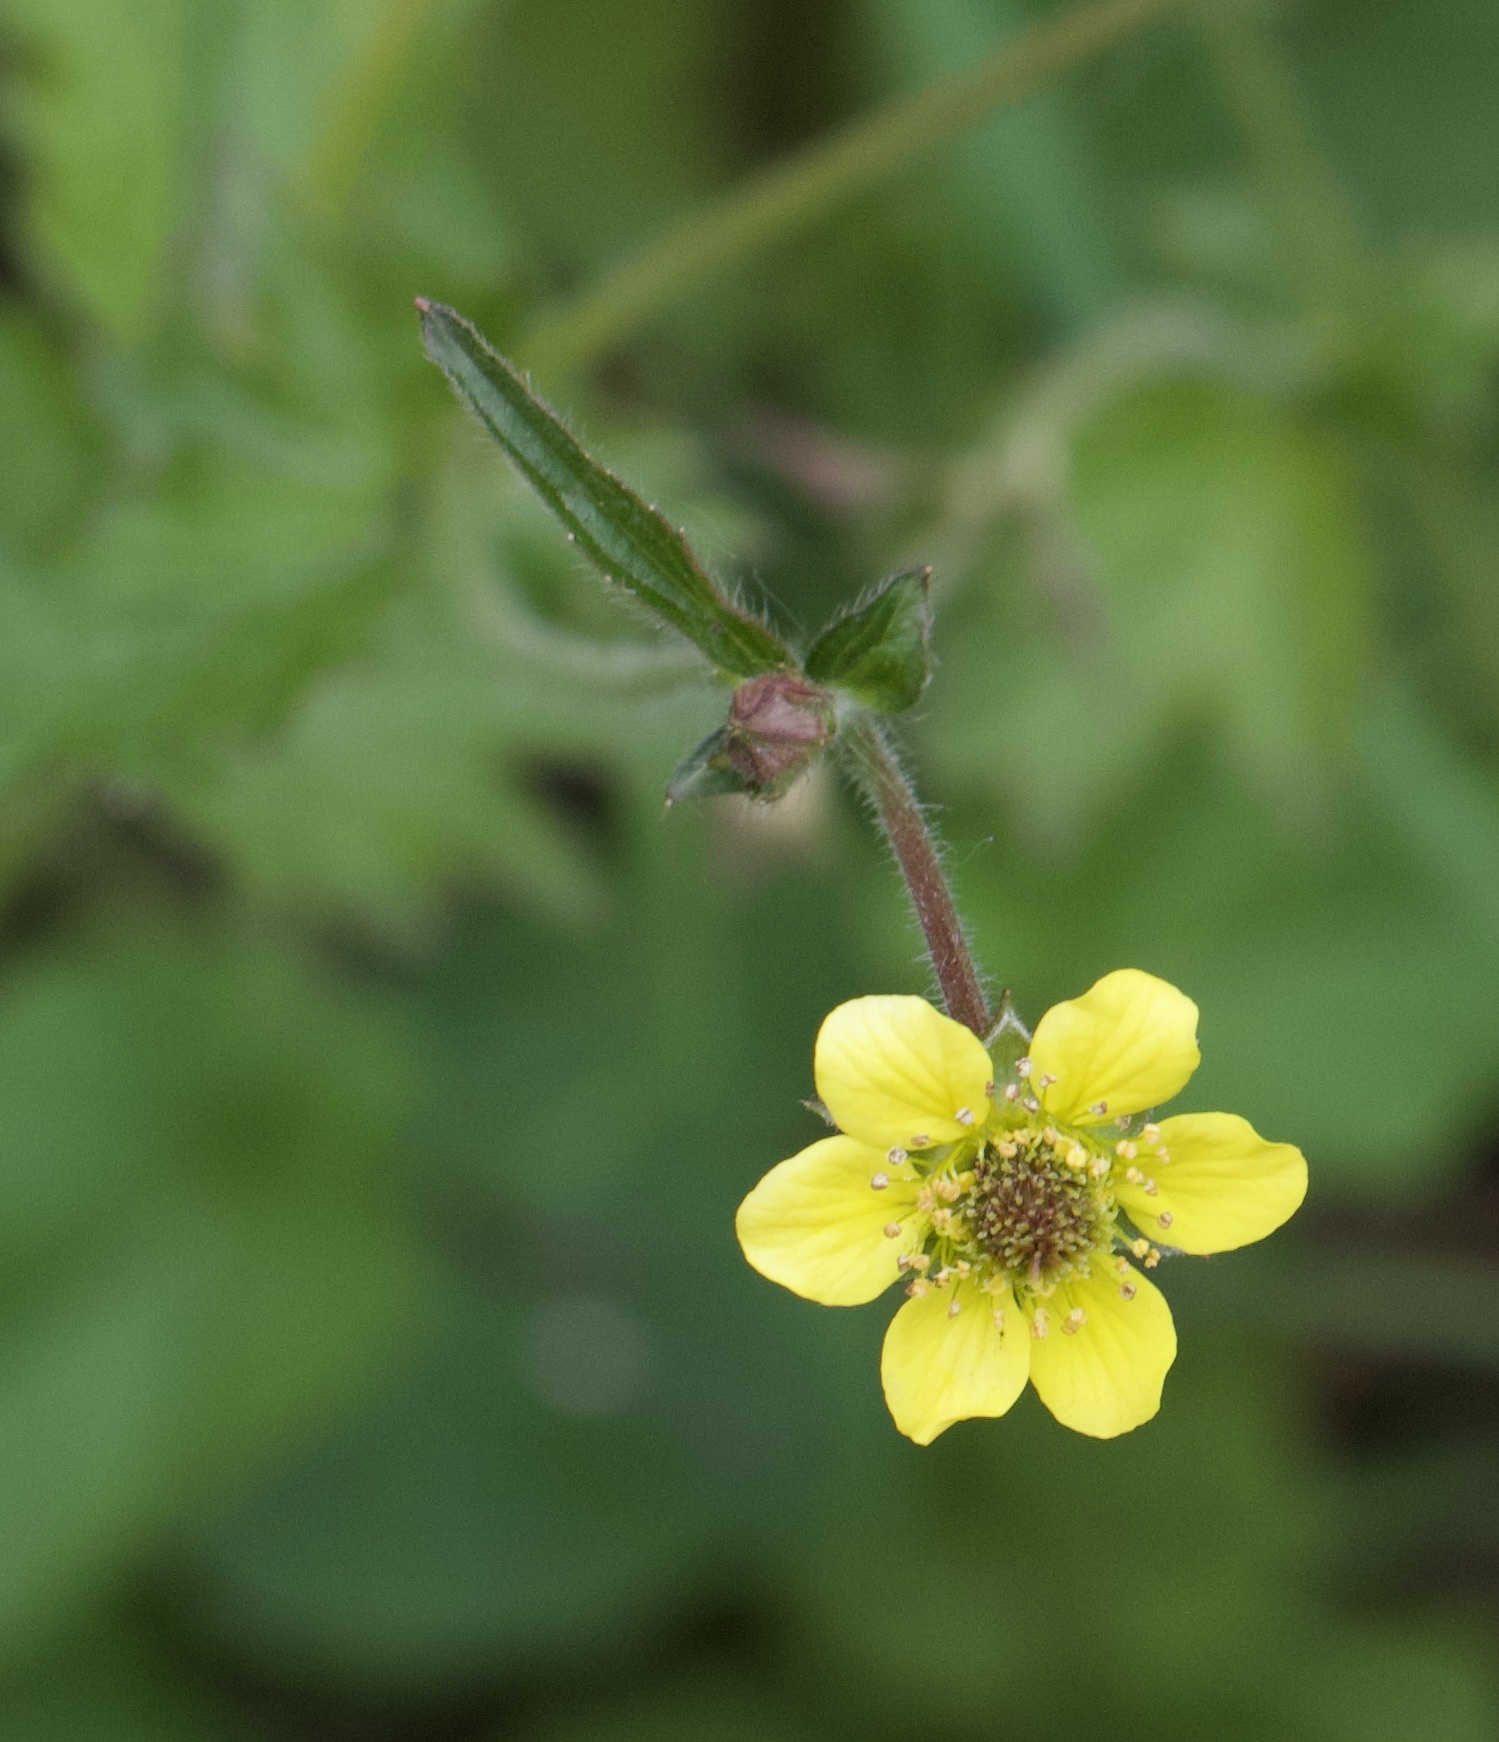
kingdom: Plantae
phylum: Tracheophyta
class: Magnoliopsida
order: Rosales
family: Rosaceae
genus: Geum
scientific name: Geum urbanum
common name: Wood avens
